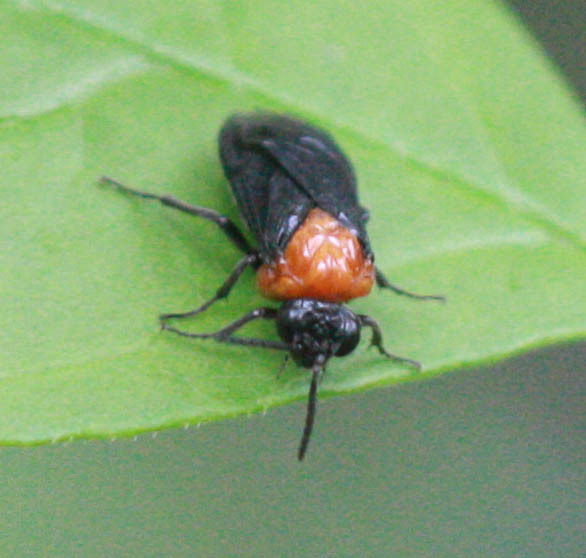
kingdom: Animalia
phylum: Arthropoda
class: Insecta
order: Hymenoptera
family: Tenthredinidae
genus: Tethida
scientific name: Tethida barda
